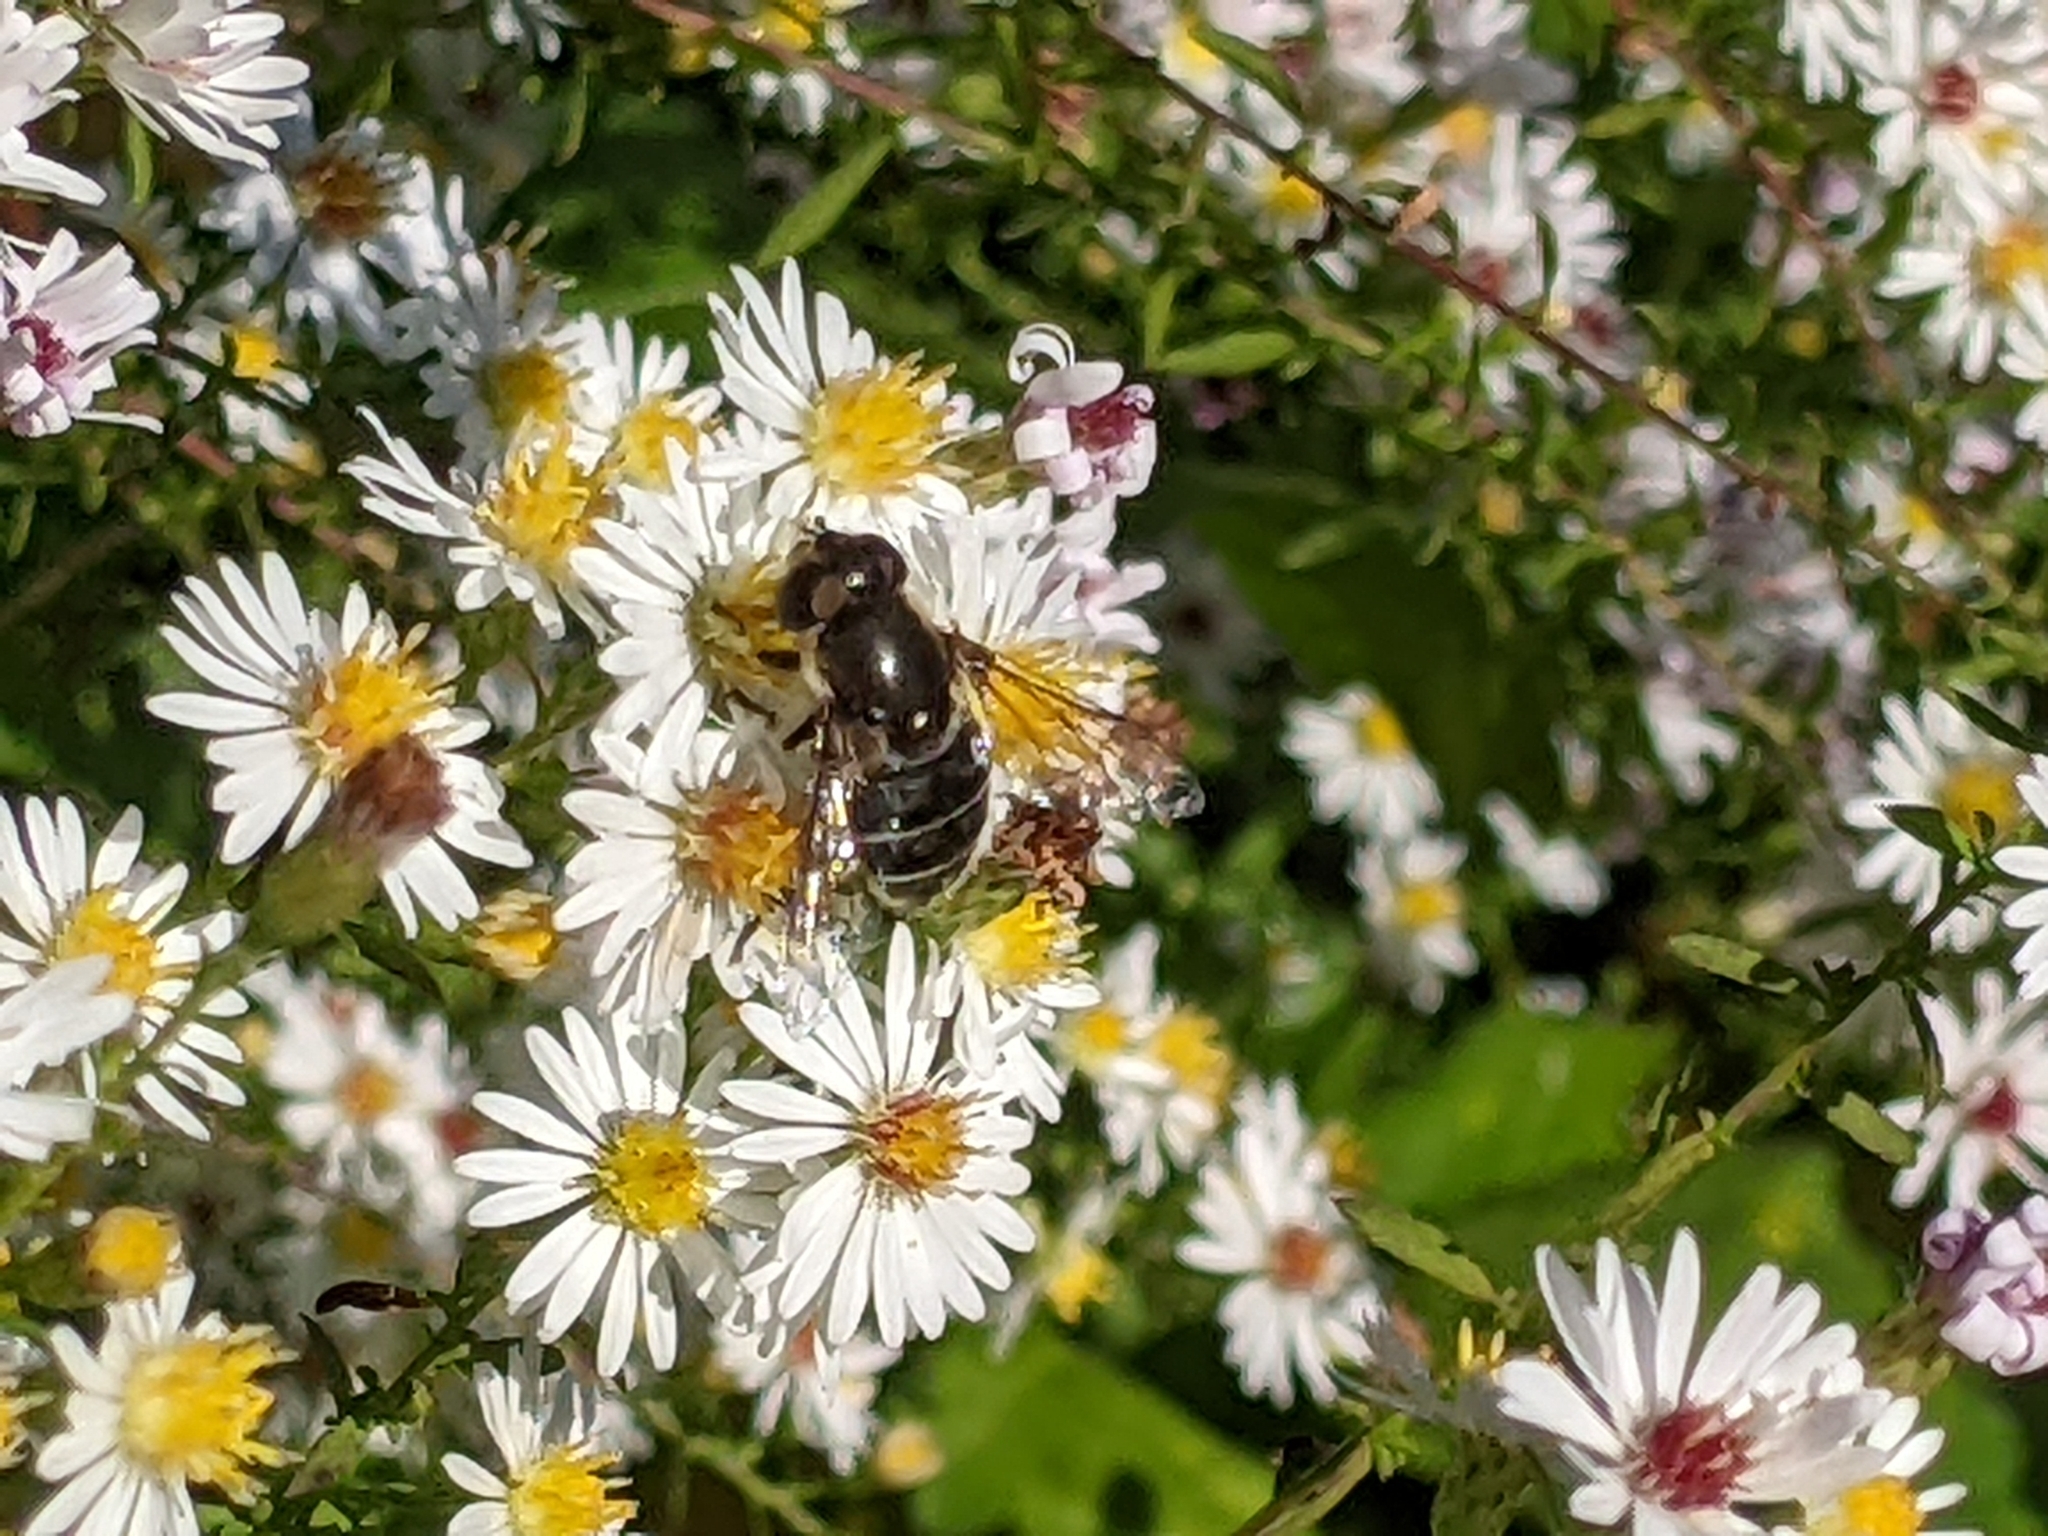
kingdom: Animalia
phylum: Arthropoda
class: Insecta
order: Diptera
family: Syrphidae
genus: Eristalis
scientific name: Eristalis dimidiata
